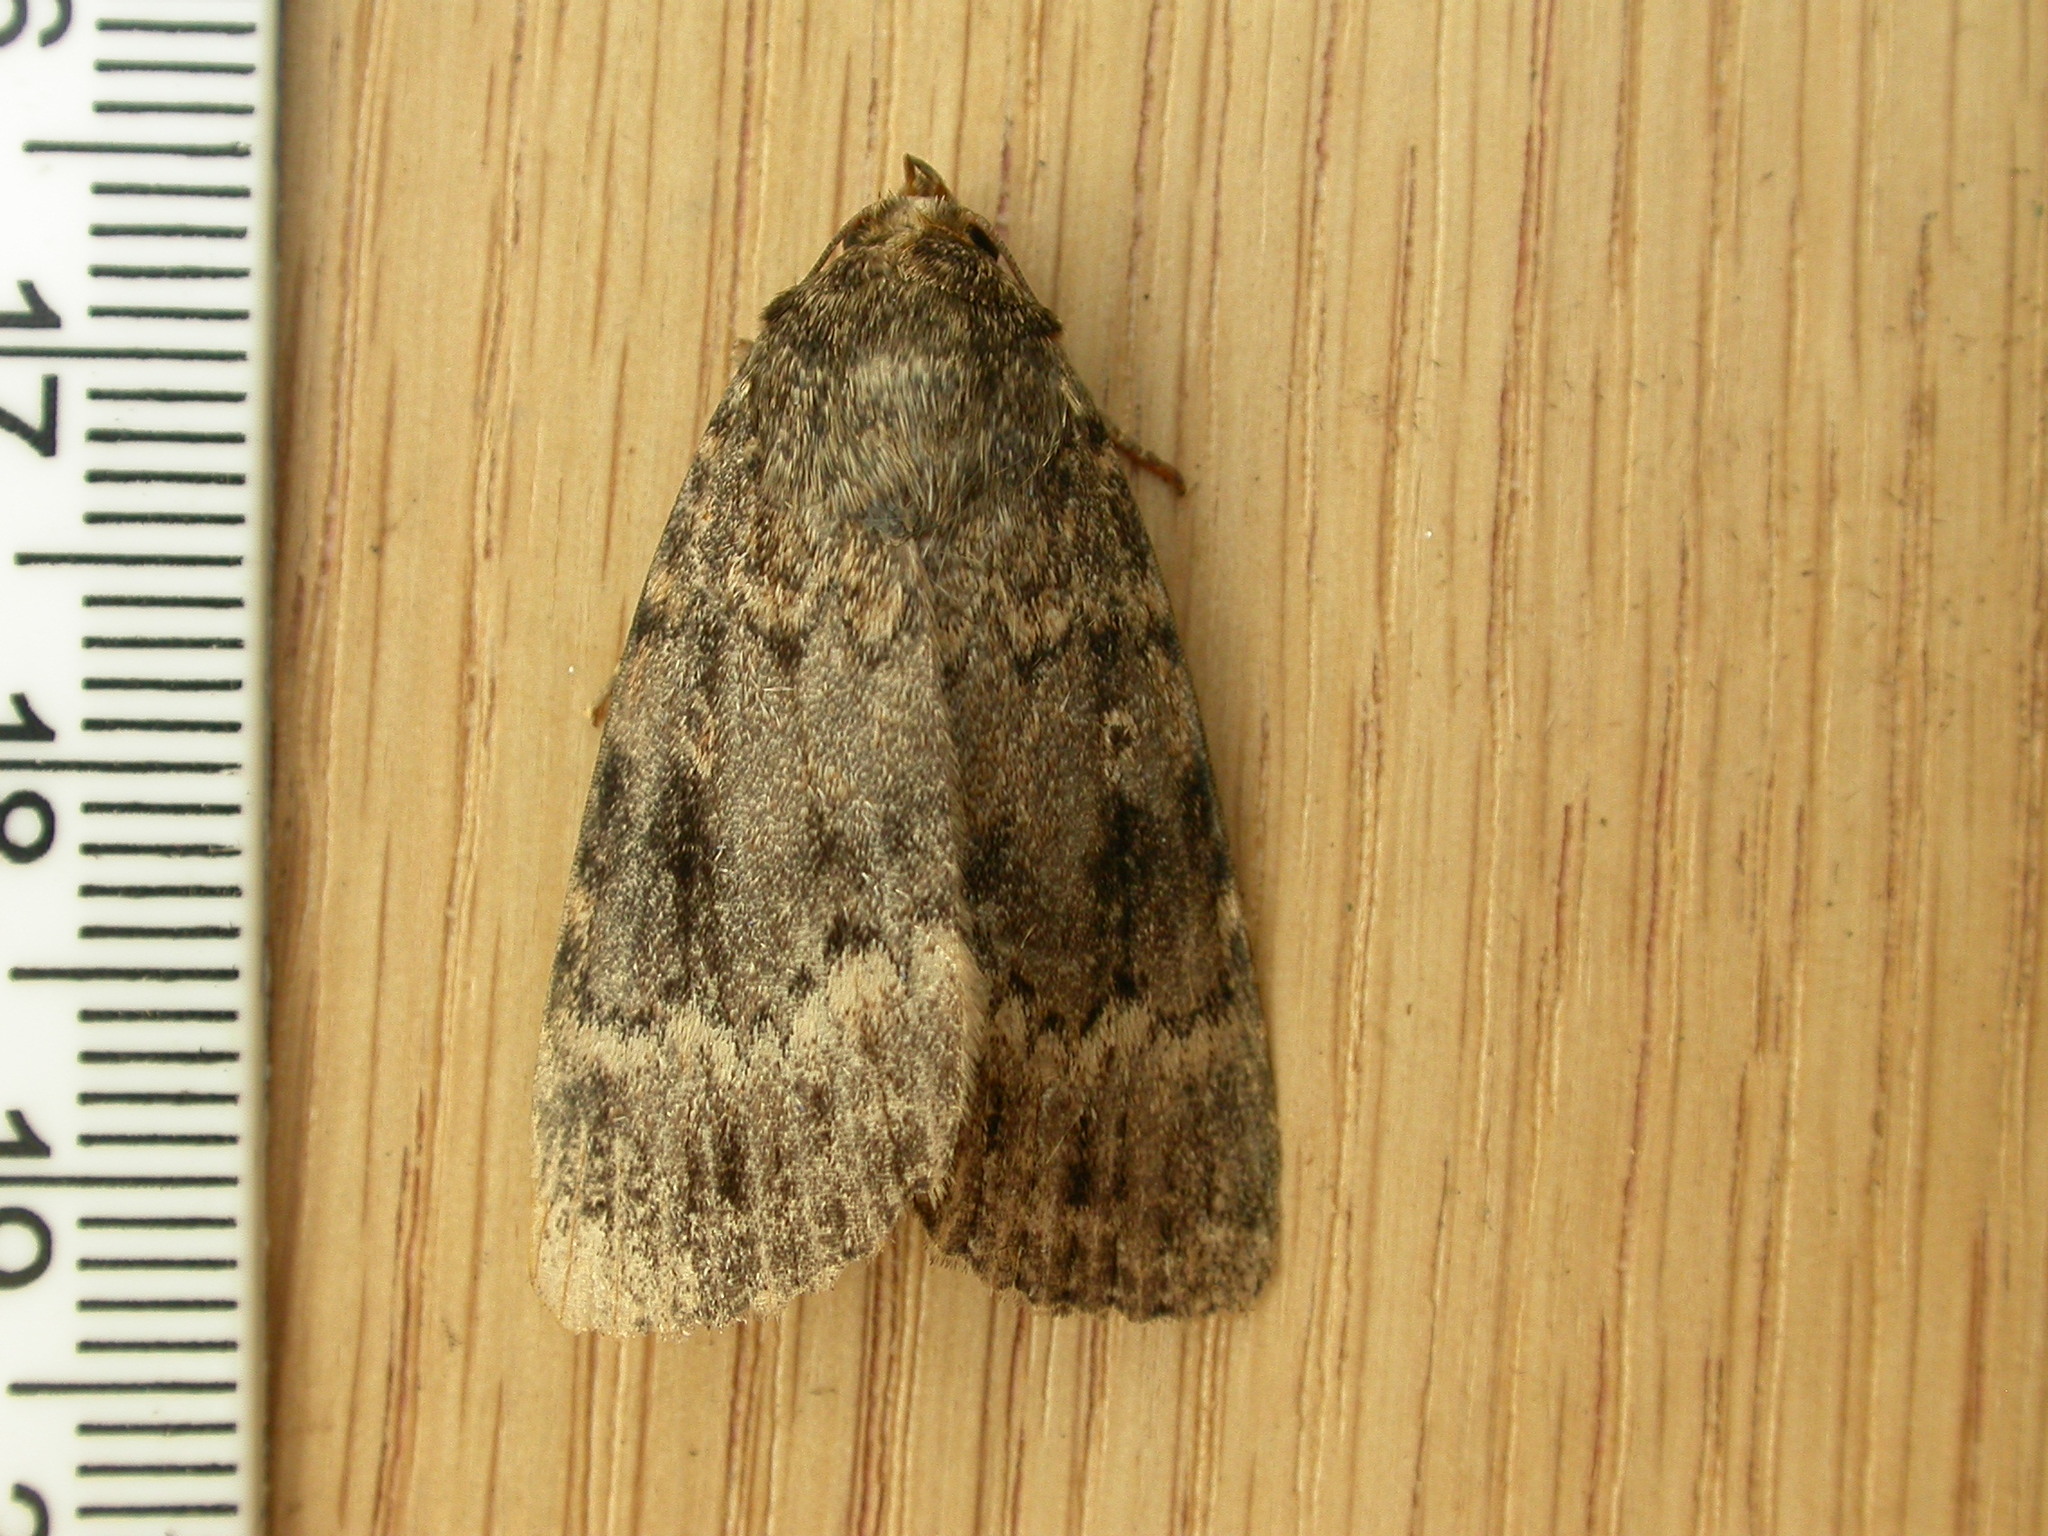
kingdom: Animalia
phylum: Arthropoda
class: Insecta
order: Lepidoptera
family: Noctuidae
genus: Amphipyra
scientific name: Amphipyra berbera
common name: Svensson's copper underwing
